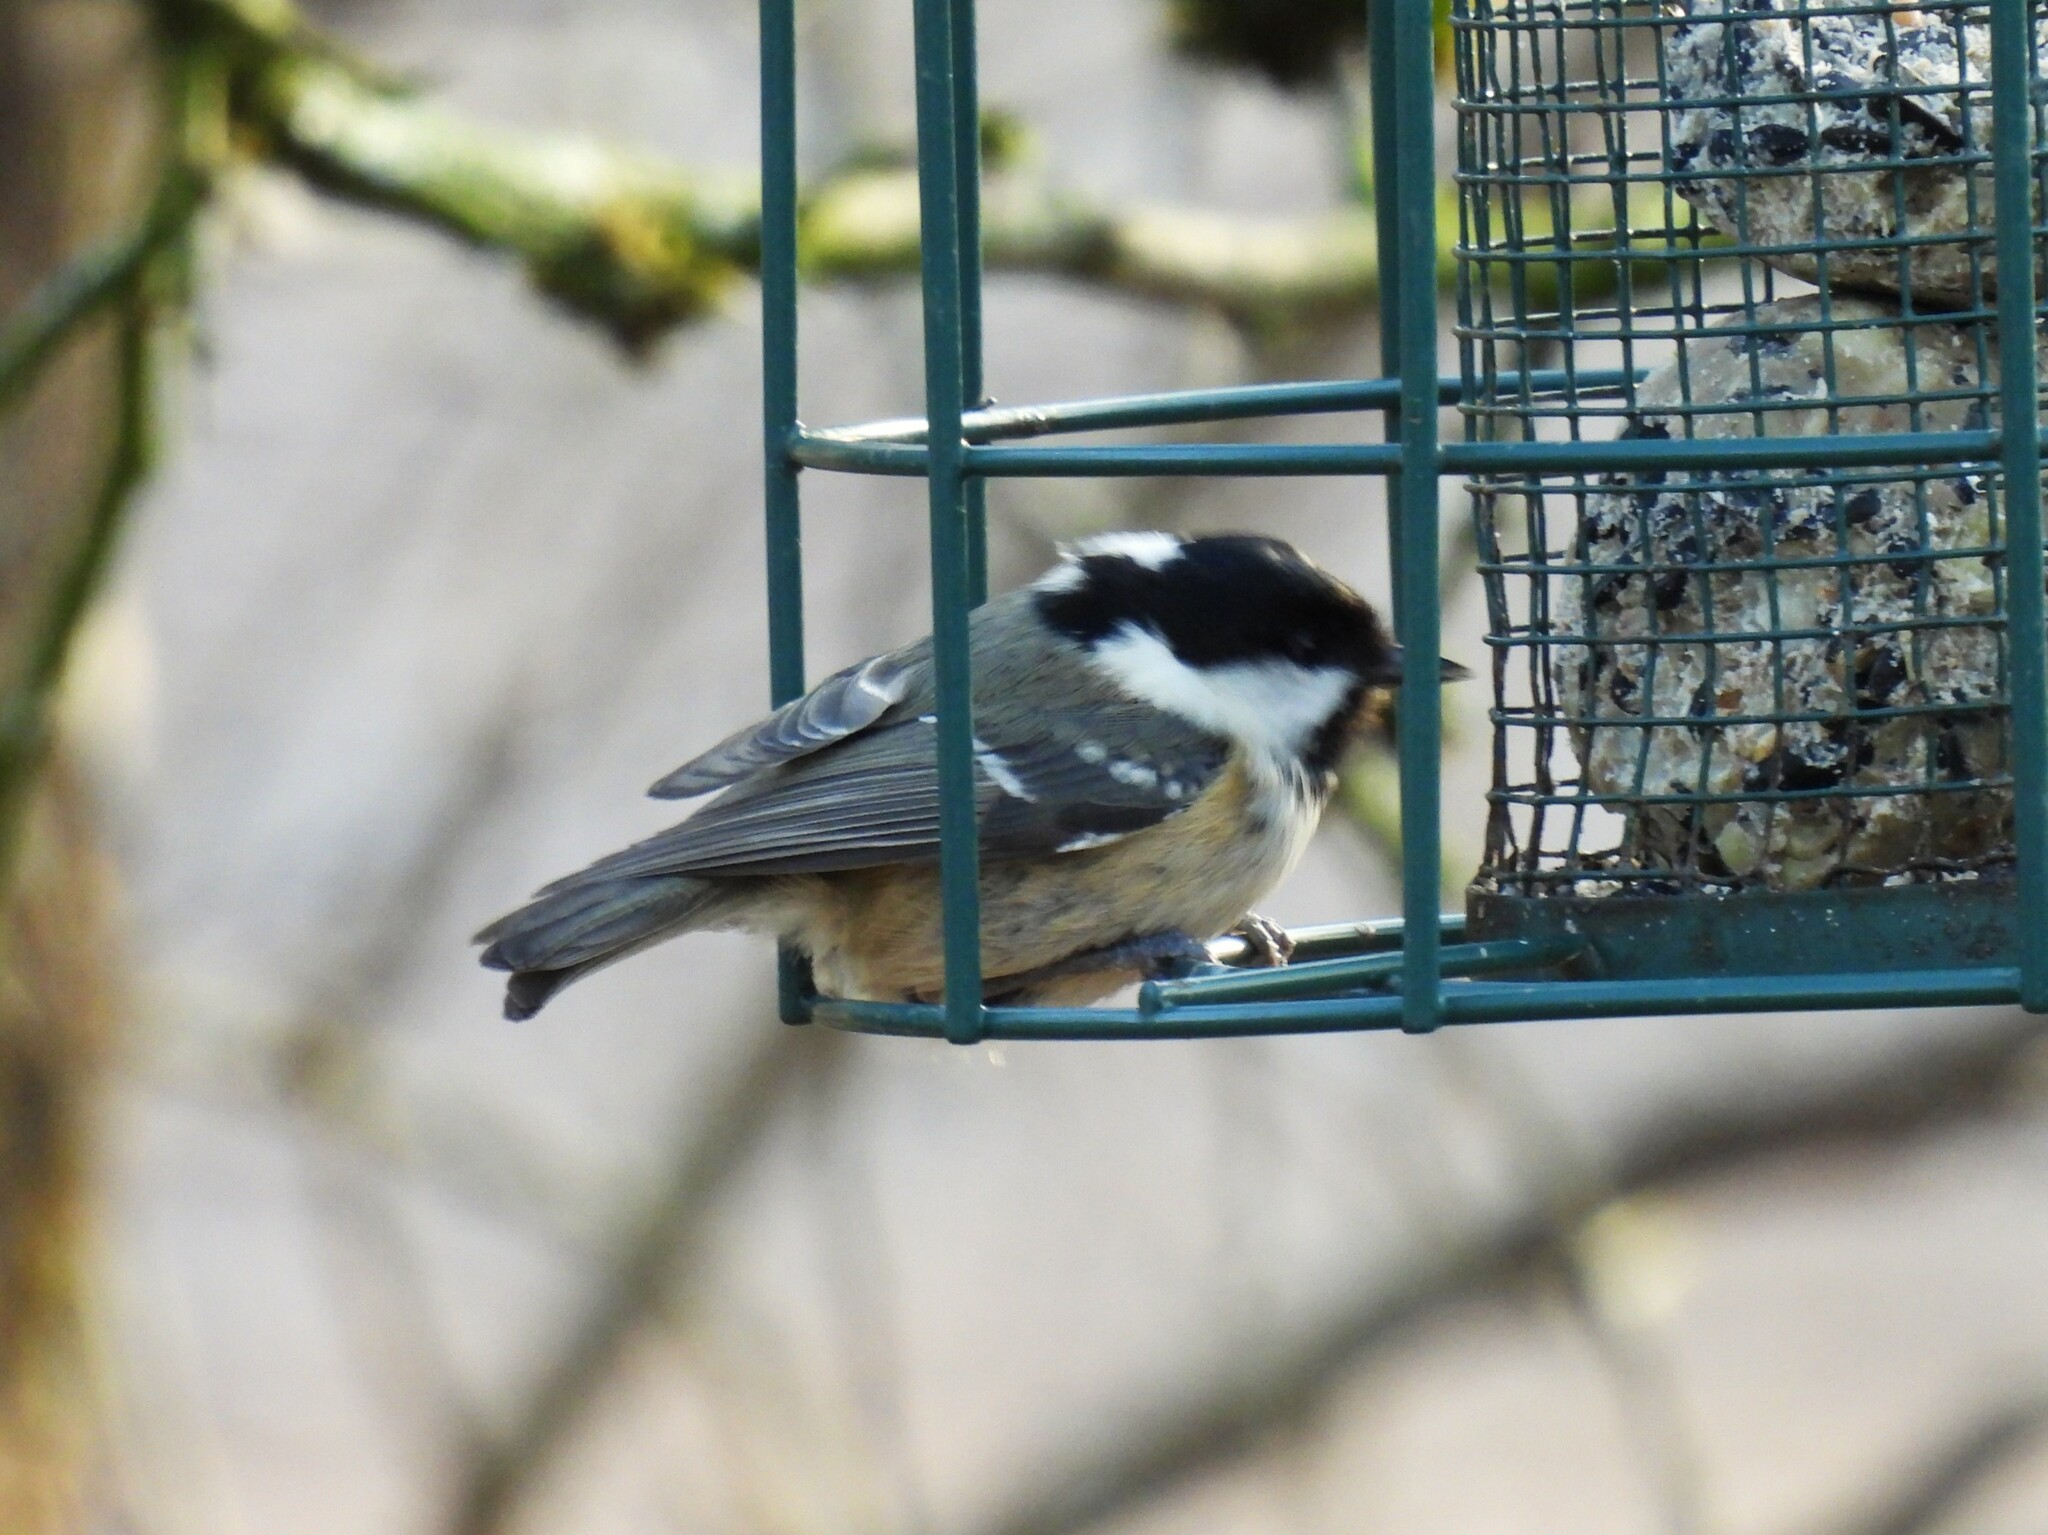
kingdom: Animalia
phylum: Chordata
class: Aves
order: Passeriformes
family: Paridae
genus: Periparus
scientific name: Periparus ater
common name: Coal tit
